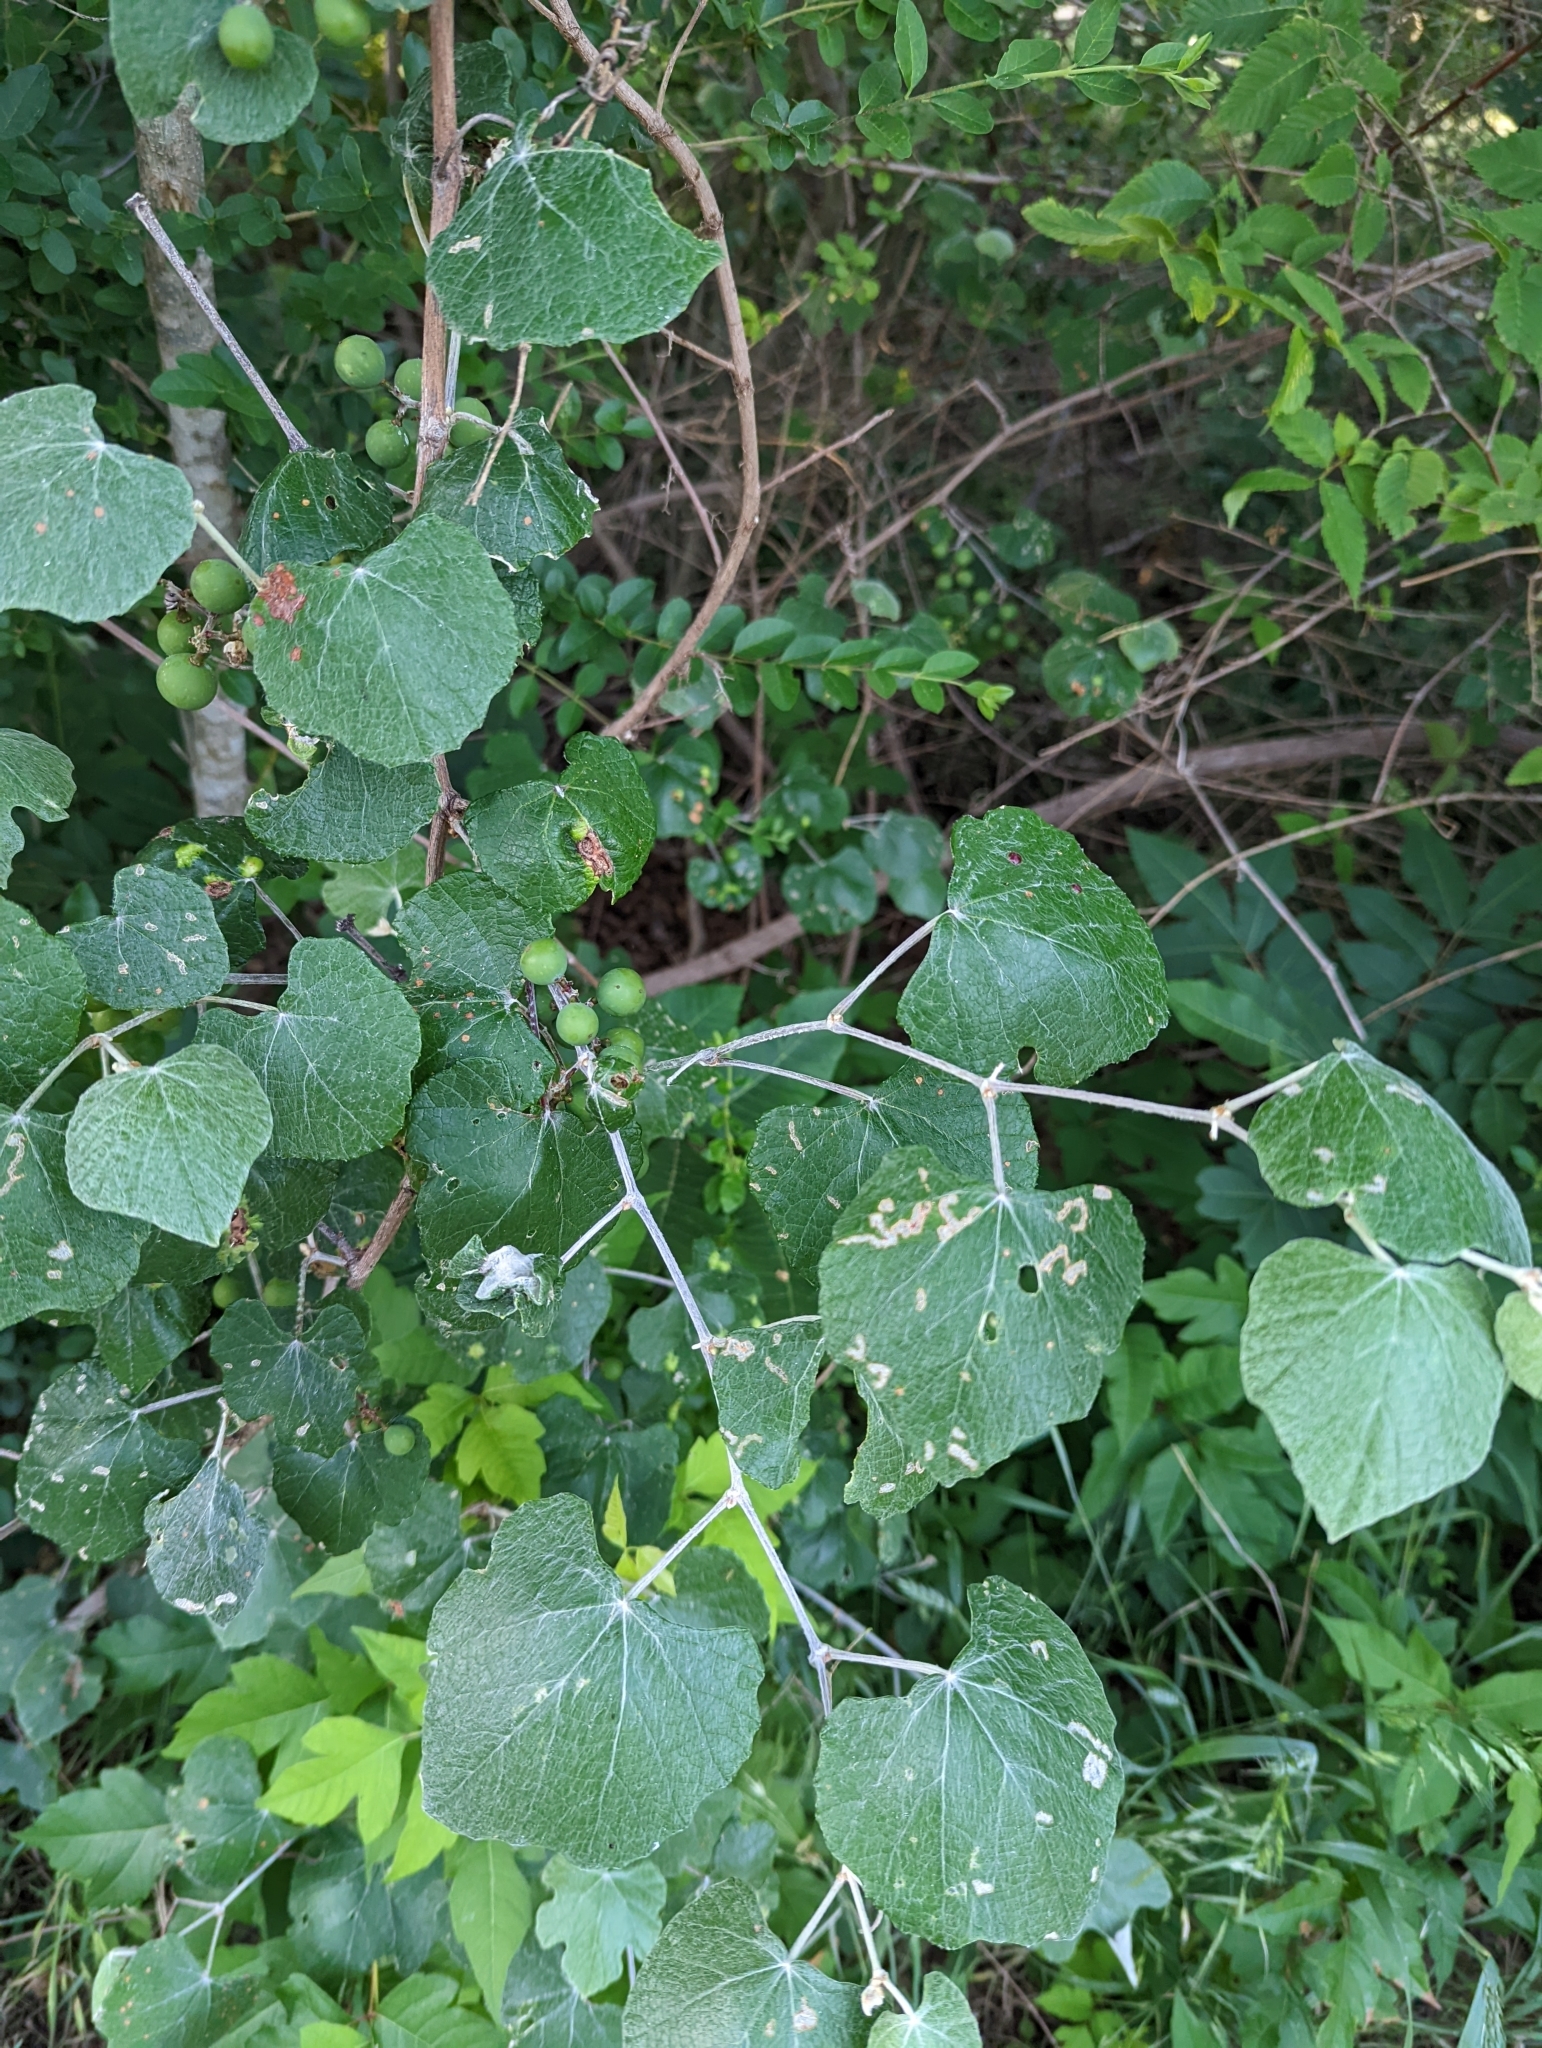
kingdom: Plantae
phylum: Tracheophyta
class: Magnoliopsida
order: Vitales
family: Vitaceae
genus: Vitis
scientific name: Vitis mustangensis
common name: Mustang grape
